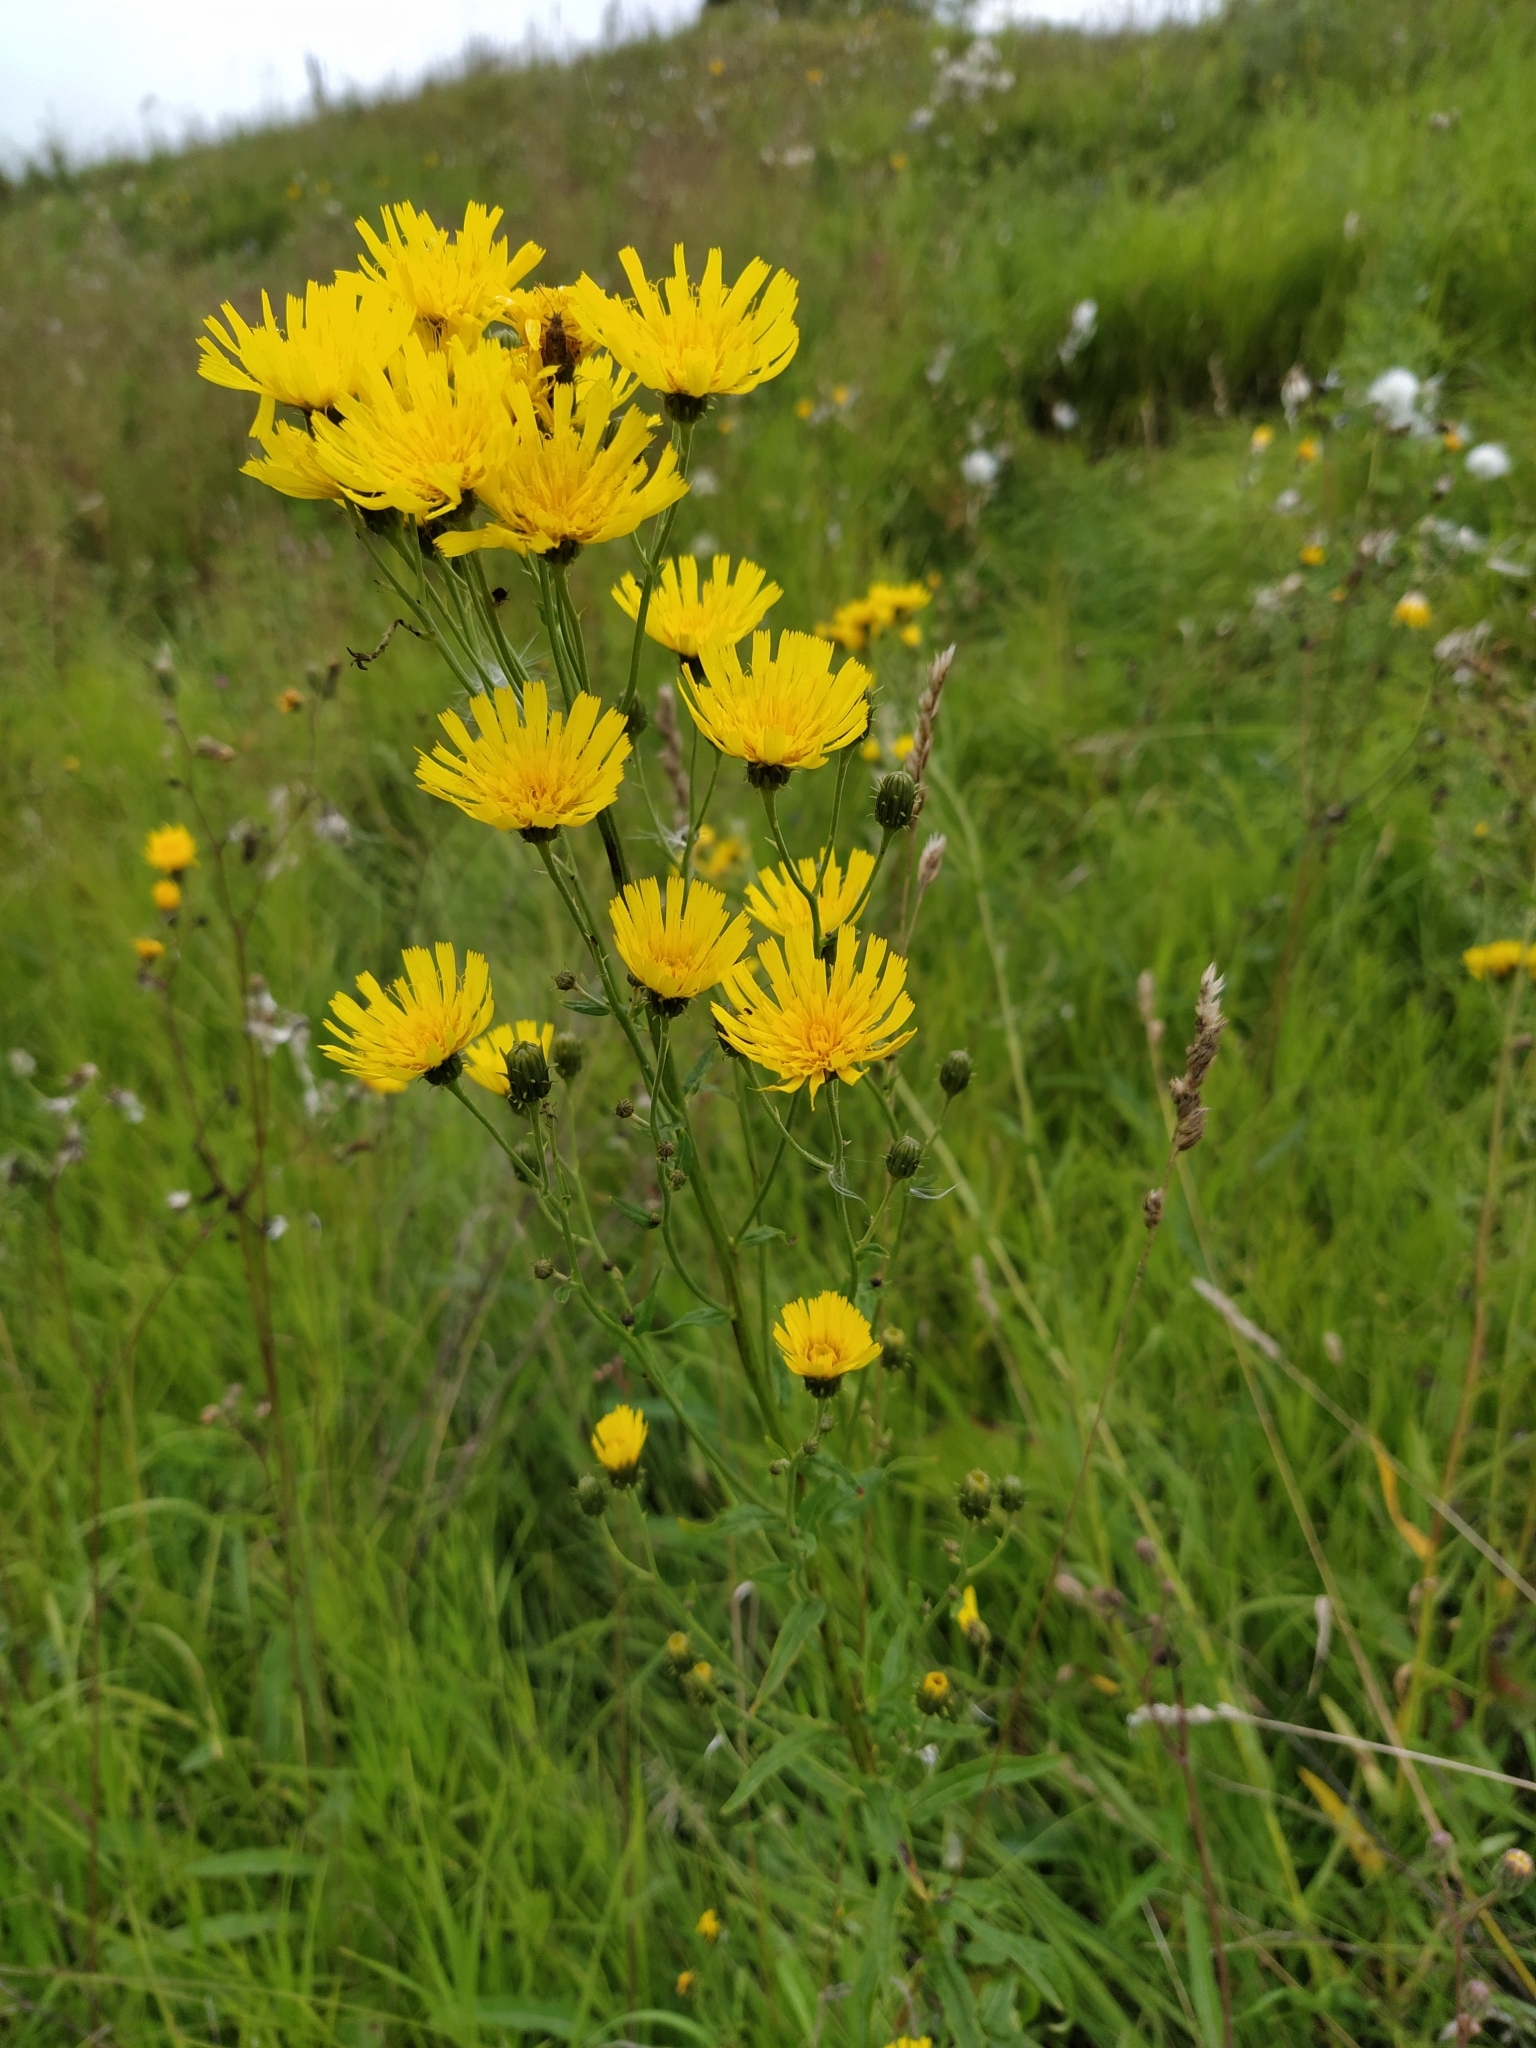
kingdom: Plantae
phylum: Tracheophyta
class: Magnoliopsida
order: Asterales
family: Asteraceae
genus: Hieracium
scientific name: Hieracium umbellatum
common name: Northern hawkweed
